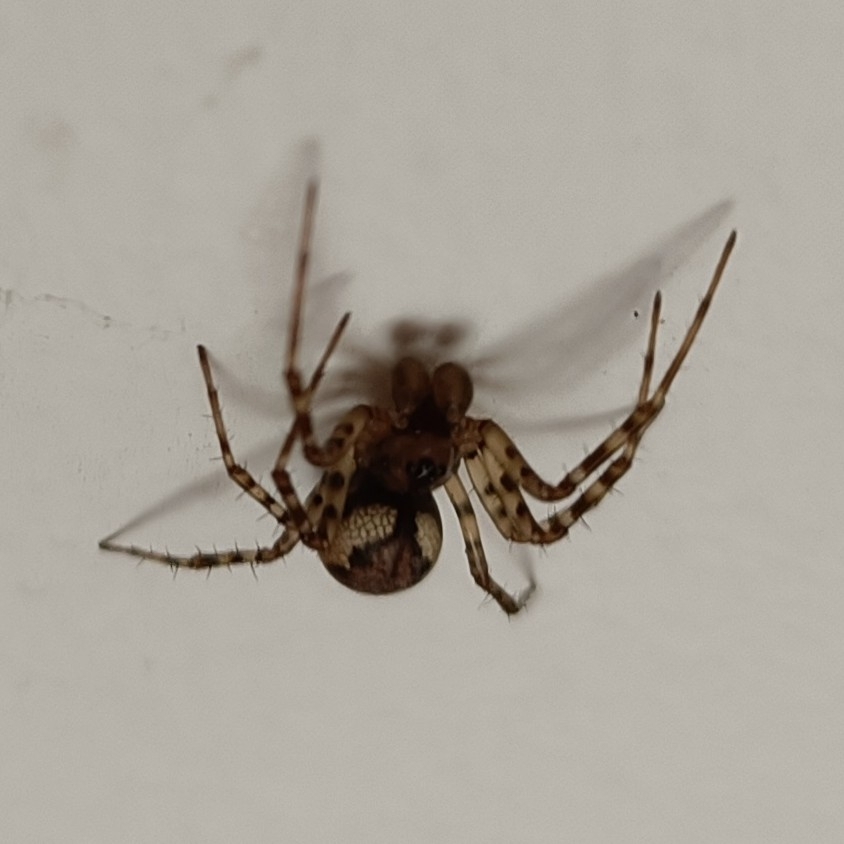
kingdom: Animalia
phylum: Arthropoda
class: Arachnida
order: Araneae
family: Linyphiidae
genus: Neriene
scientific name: Neriene montana
